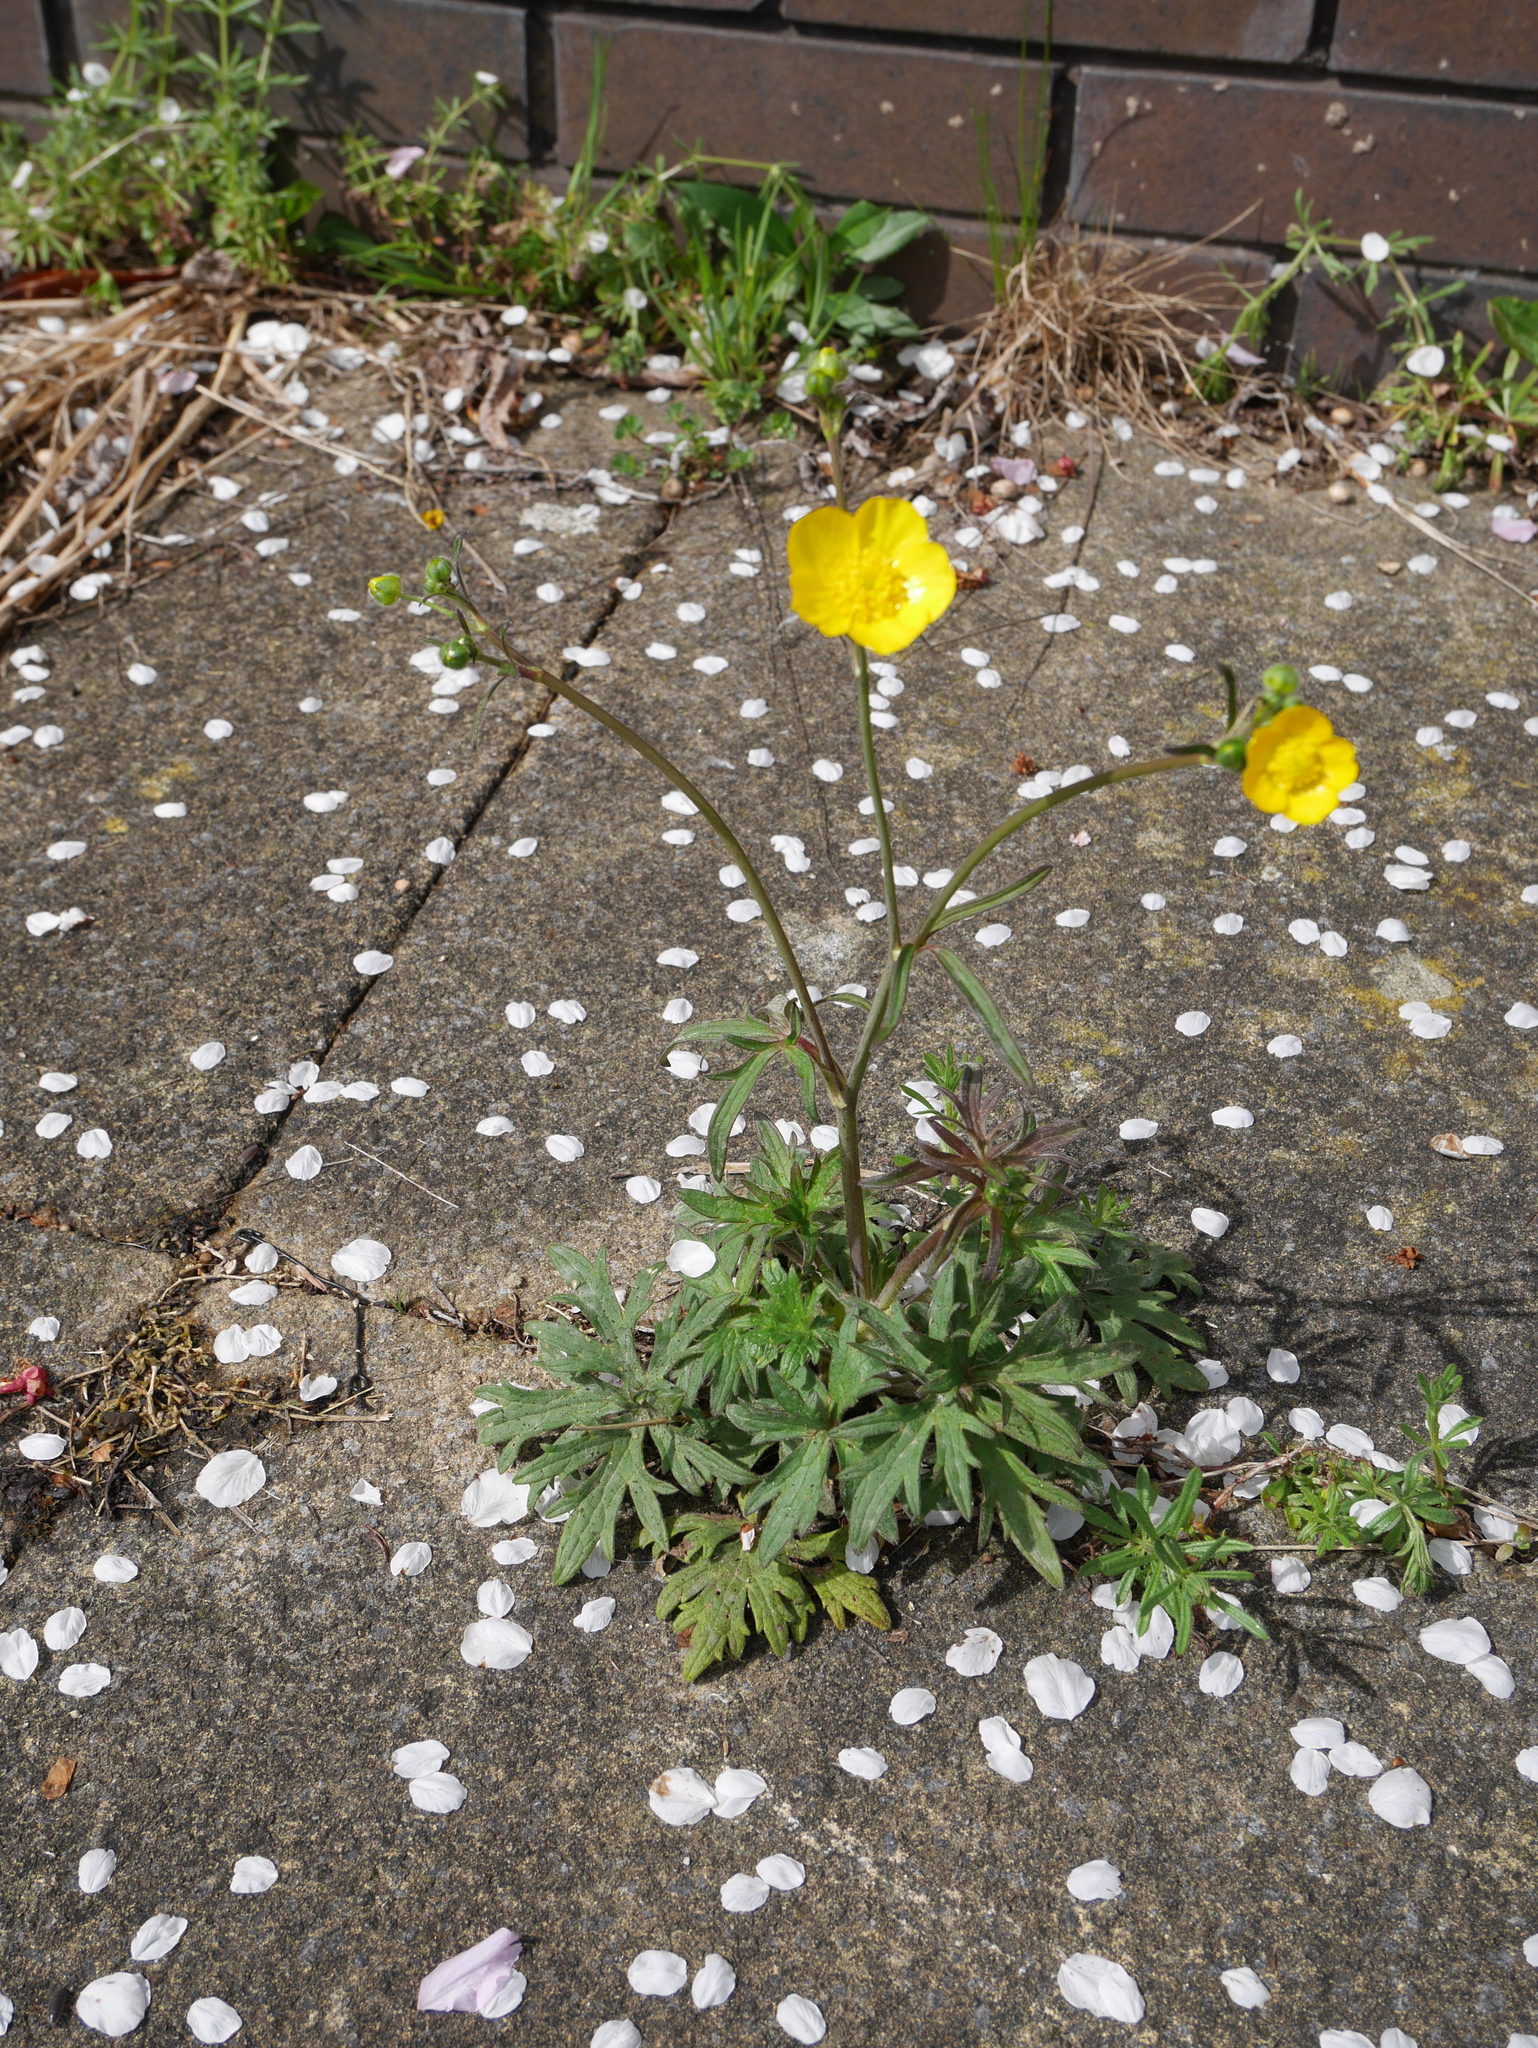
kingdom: Plantae
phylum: Tracheophyta
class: Magnoliopsida
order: Ranunculales
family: Ranunculaceae
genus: Ranunculus
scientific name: Ranunculus acris
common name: Meadow buttercup
